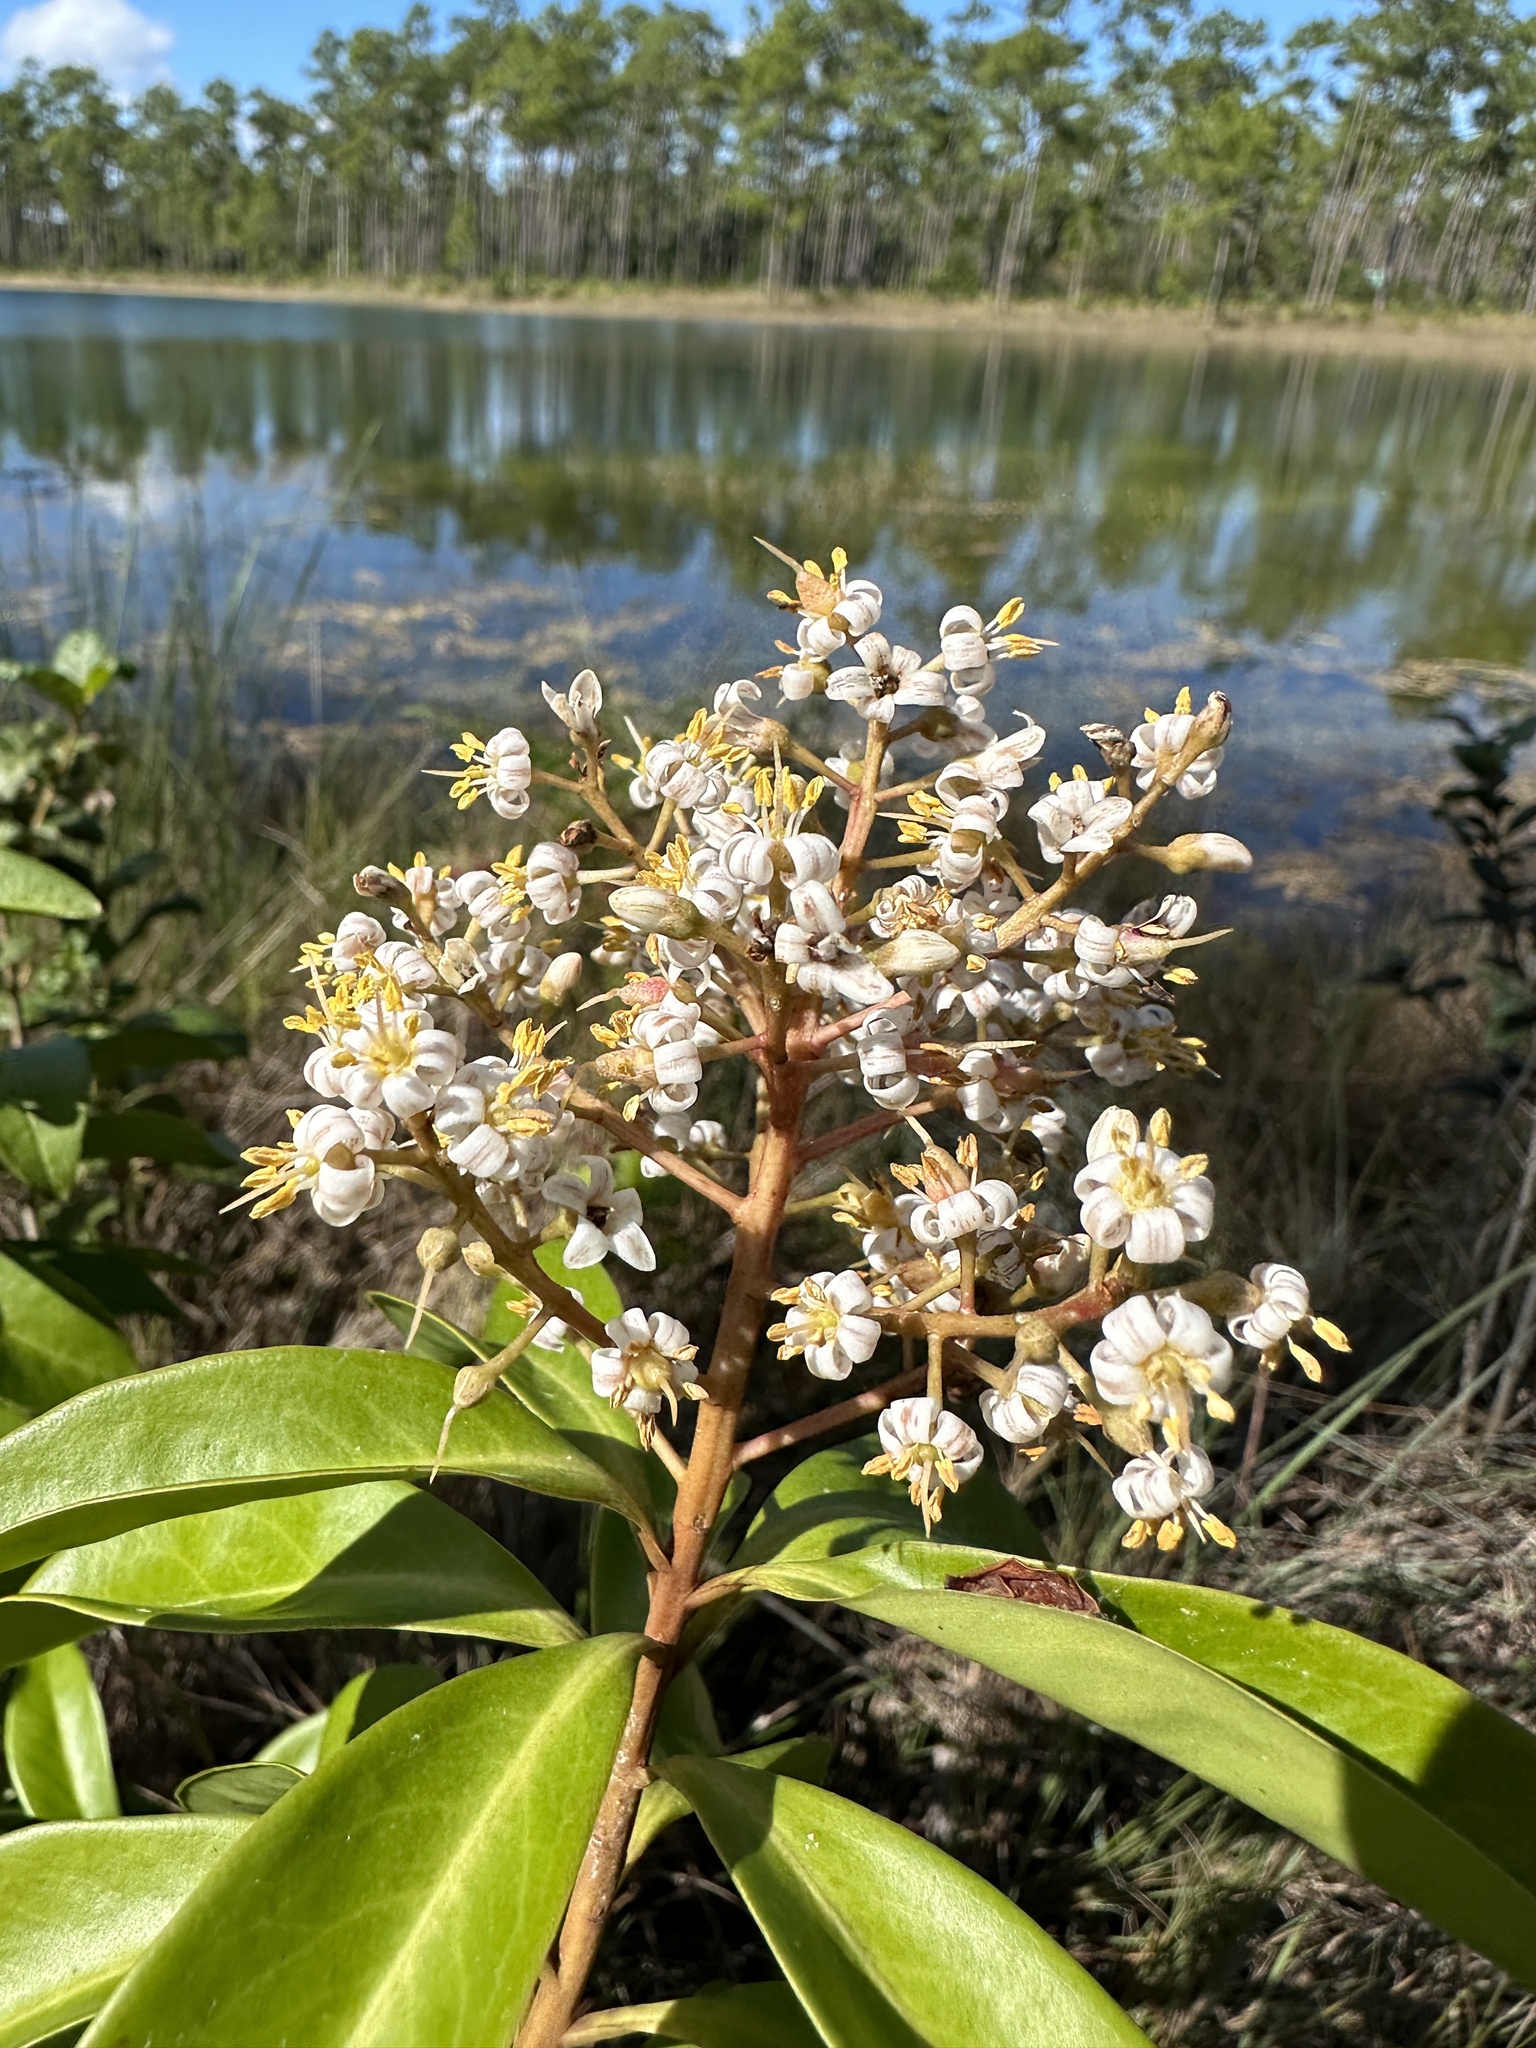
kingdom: Plantae
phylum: Tracheophyta
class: Magnoliopsida
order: Ericales
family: Primulaceae
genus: Ardisia
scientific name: Ardisia escallonioides
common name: Island marlberry
